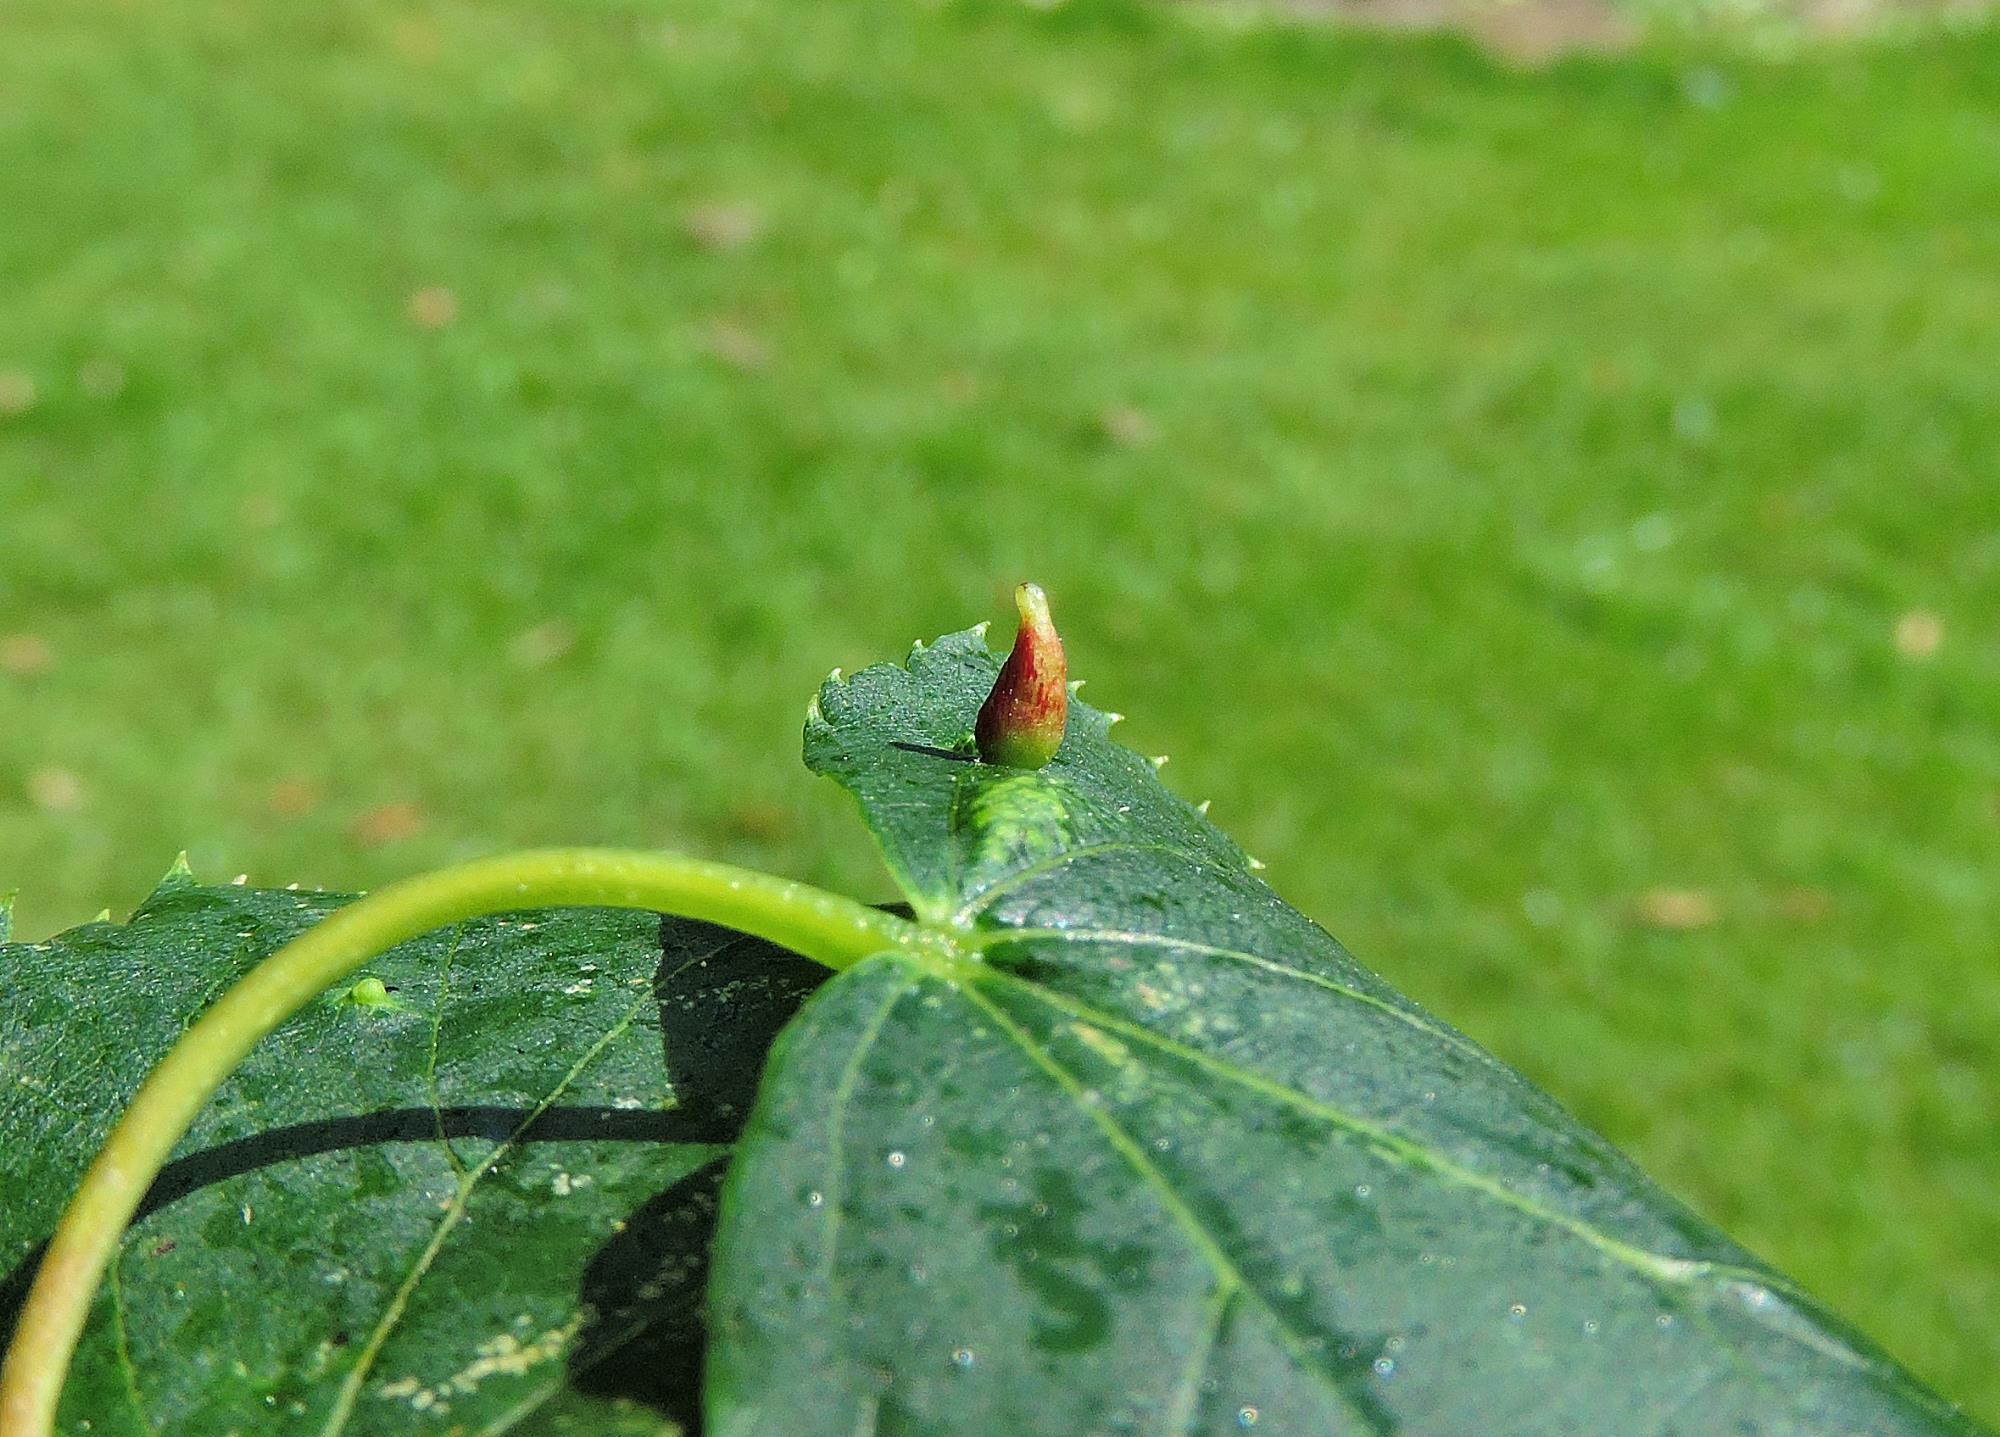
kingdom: Animalia
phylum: Arthropoda
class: Arachnida
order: Trombidiformes
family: Eriophyidae
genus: Eriophyes
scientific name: Eriophyes tiliae
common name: Red nail gall mite
